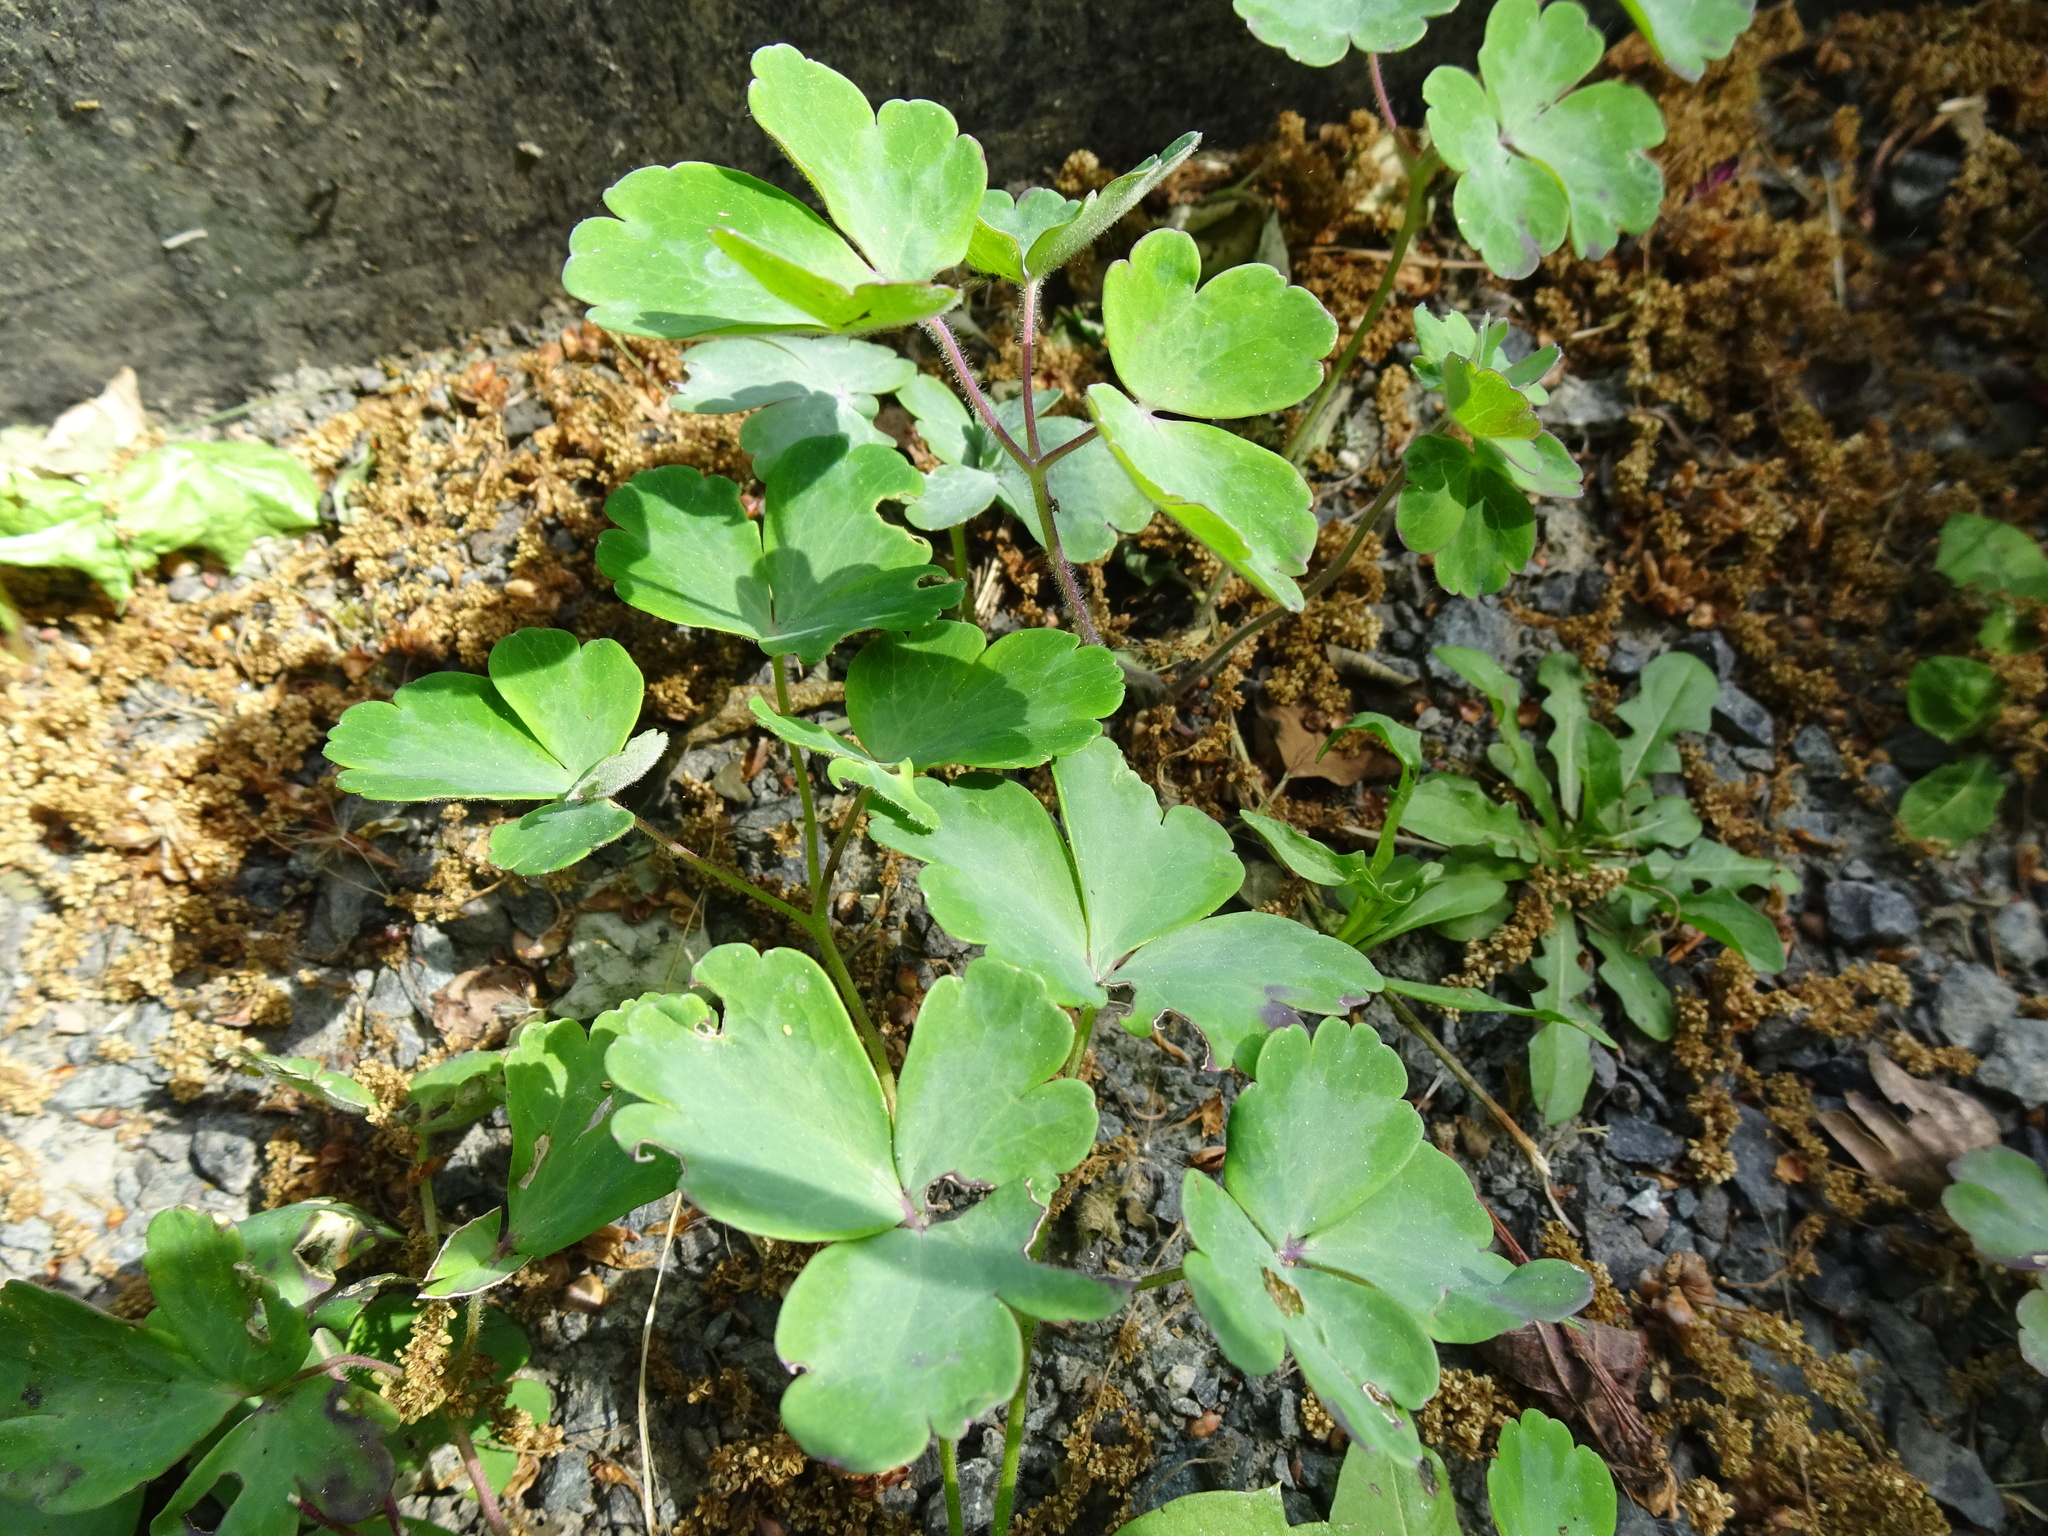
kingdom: Plantae
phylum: Tracheophyta
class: Magnoliopsida
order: Ranunculales
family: Ranunculaceae
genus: Aquilegia
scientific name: Aquilegia
